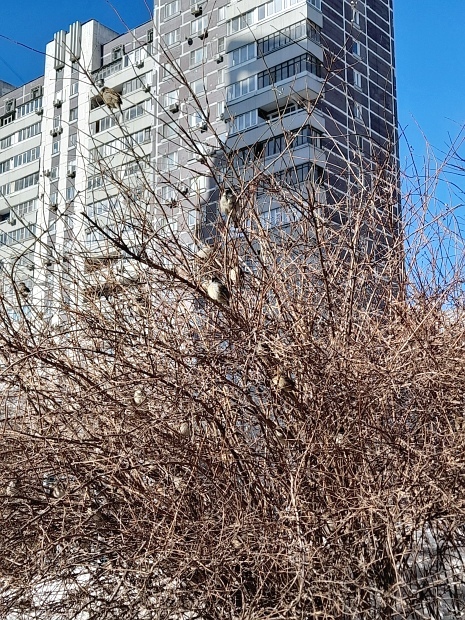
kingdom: Animalia
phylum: Chordata
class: Aves
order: Passeriformes
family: Passeridae
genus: Passer
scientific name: Passer domesticus
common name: House sparrow
